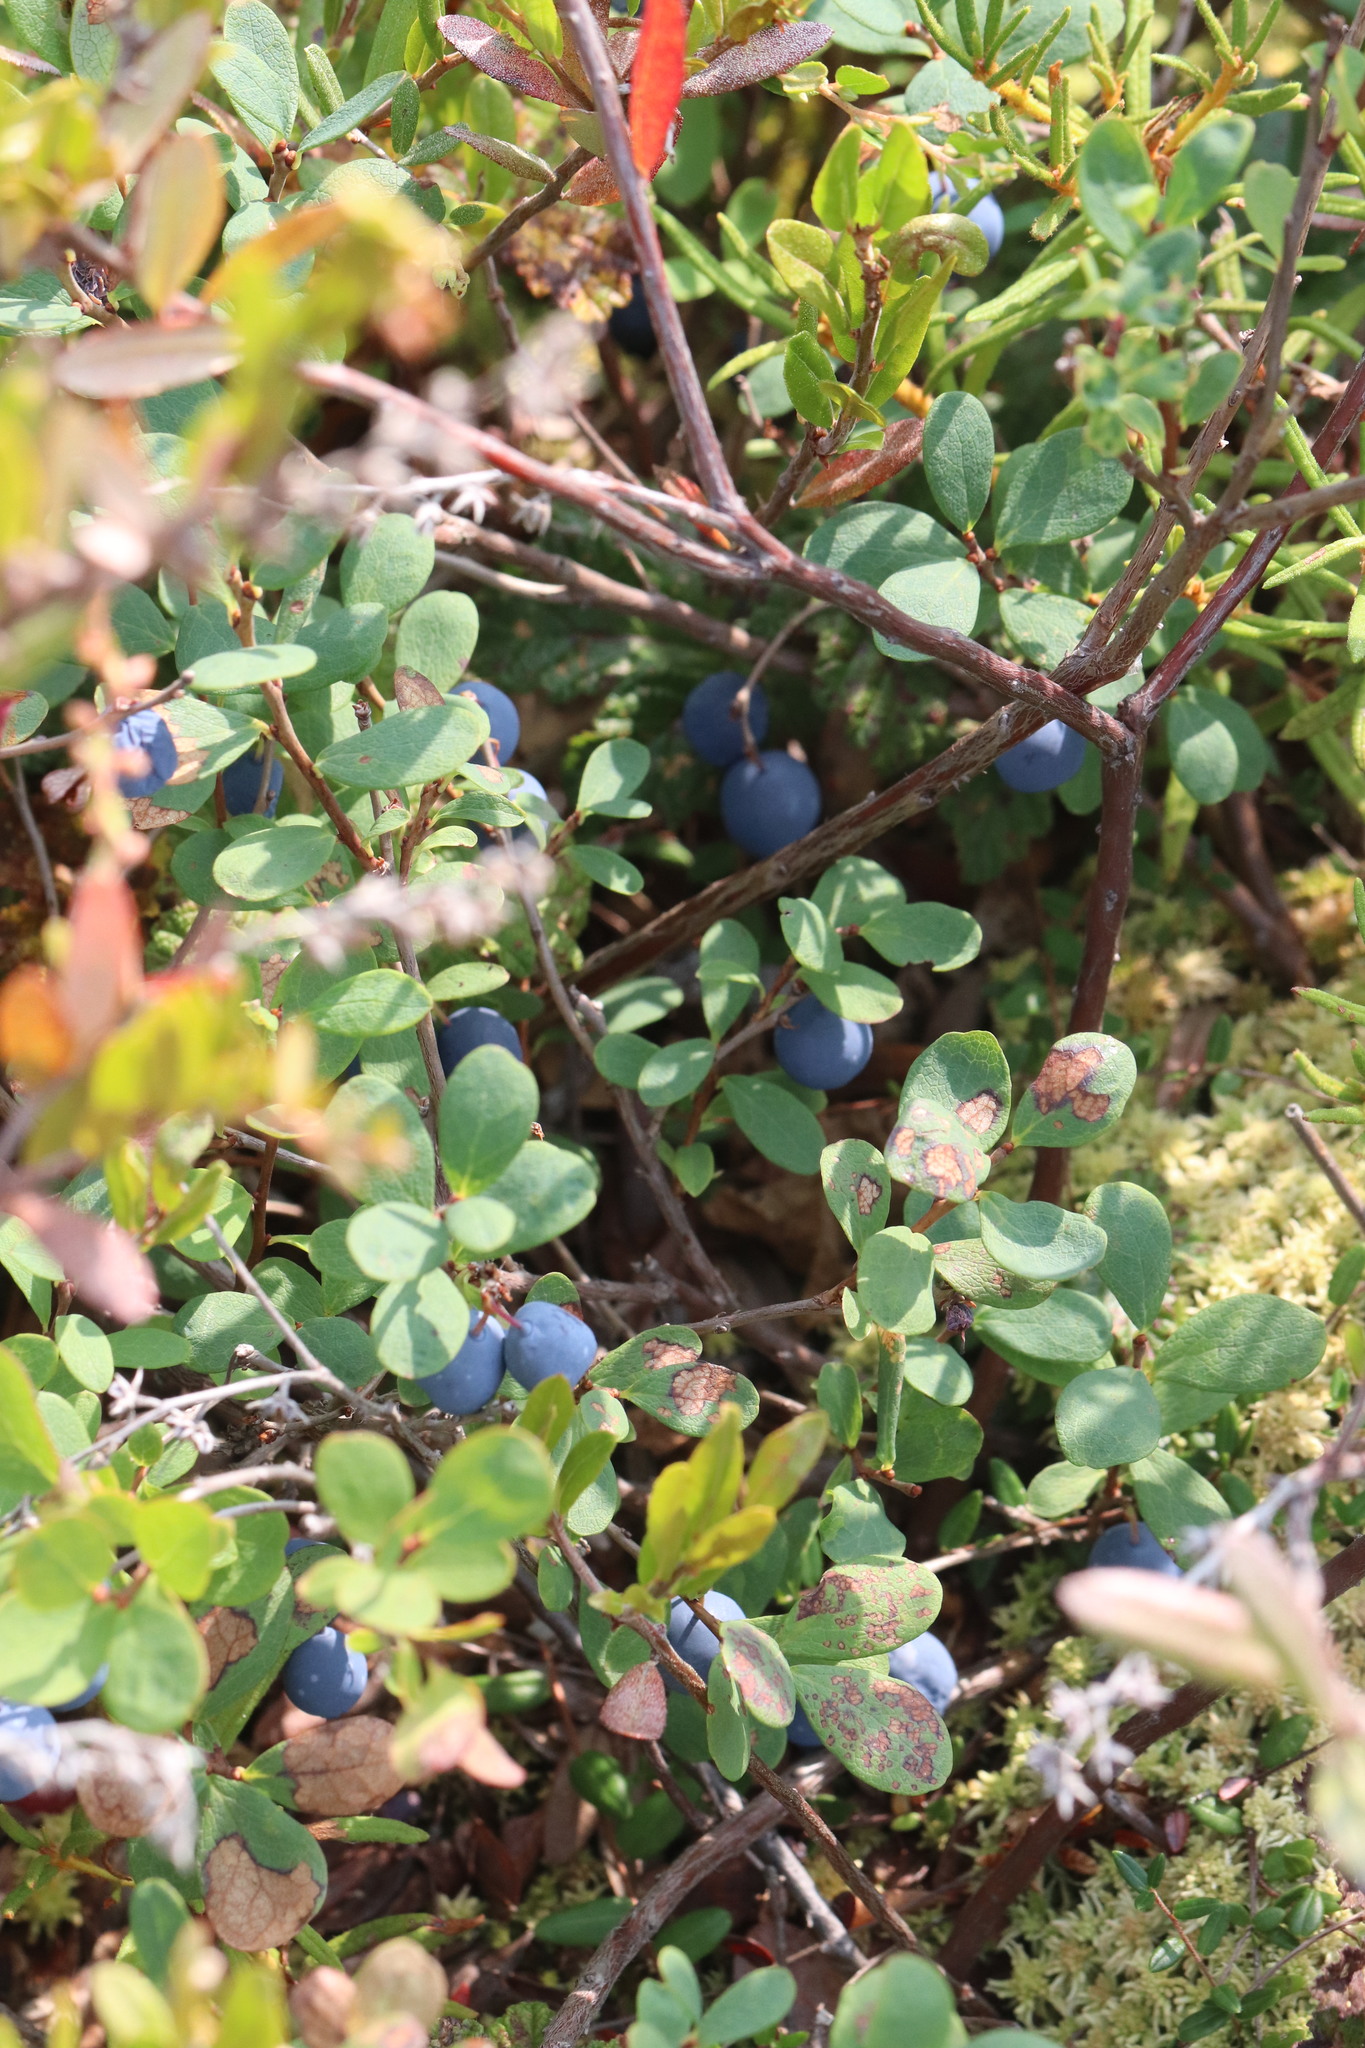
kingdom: Plantae
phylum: Tracheophyta
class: Magnoliopsida
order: Ericales
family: Ericaceae
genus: Vaccinium
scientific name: Vaccinium uliginosum
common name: Bog bilberry
